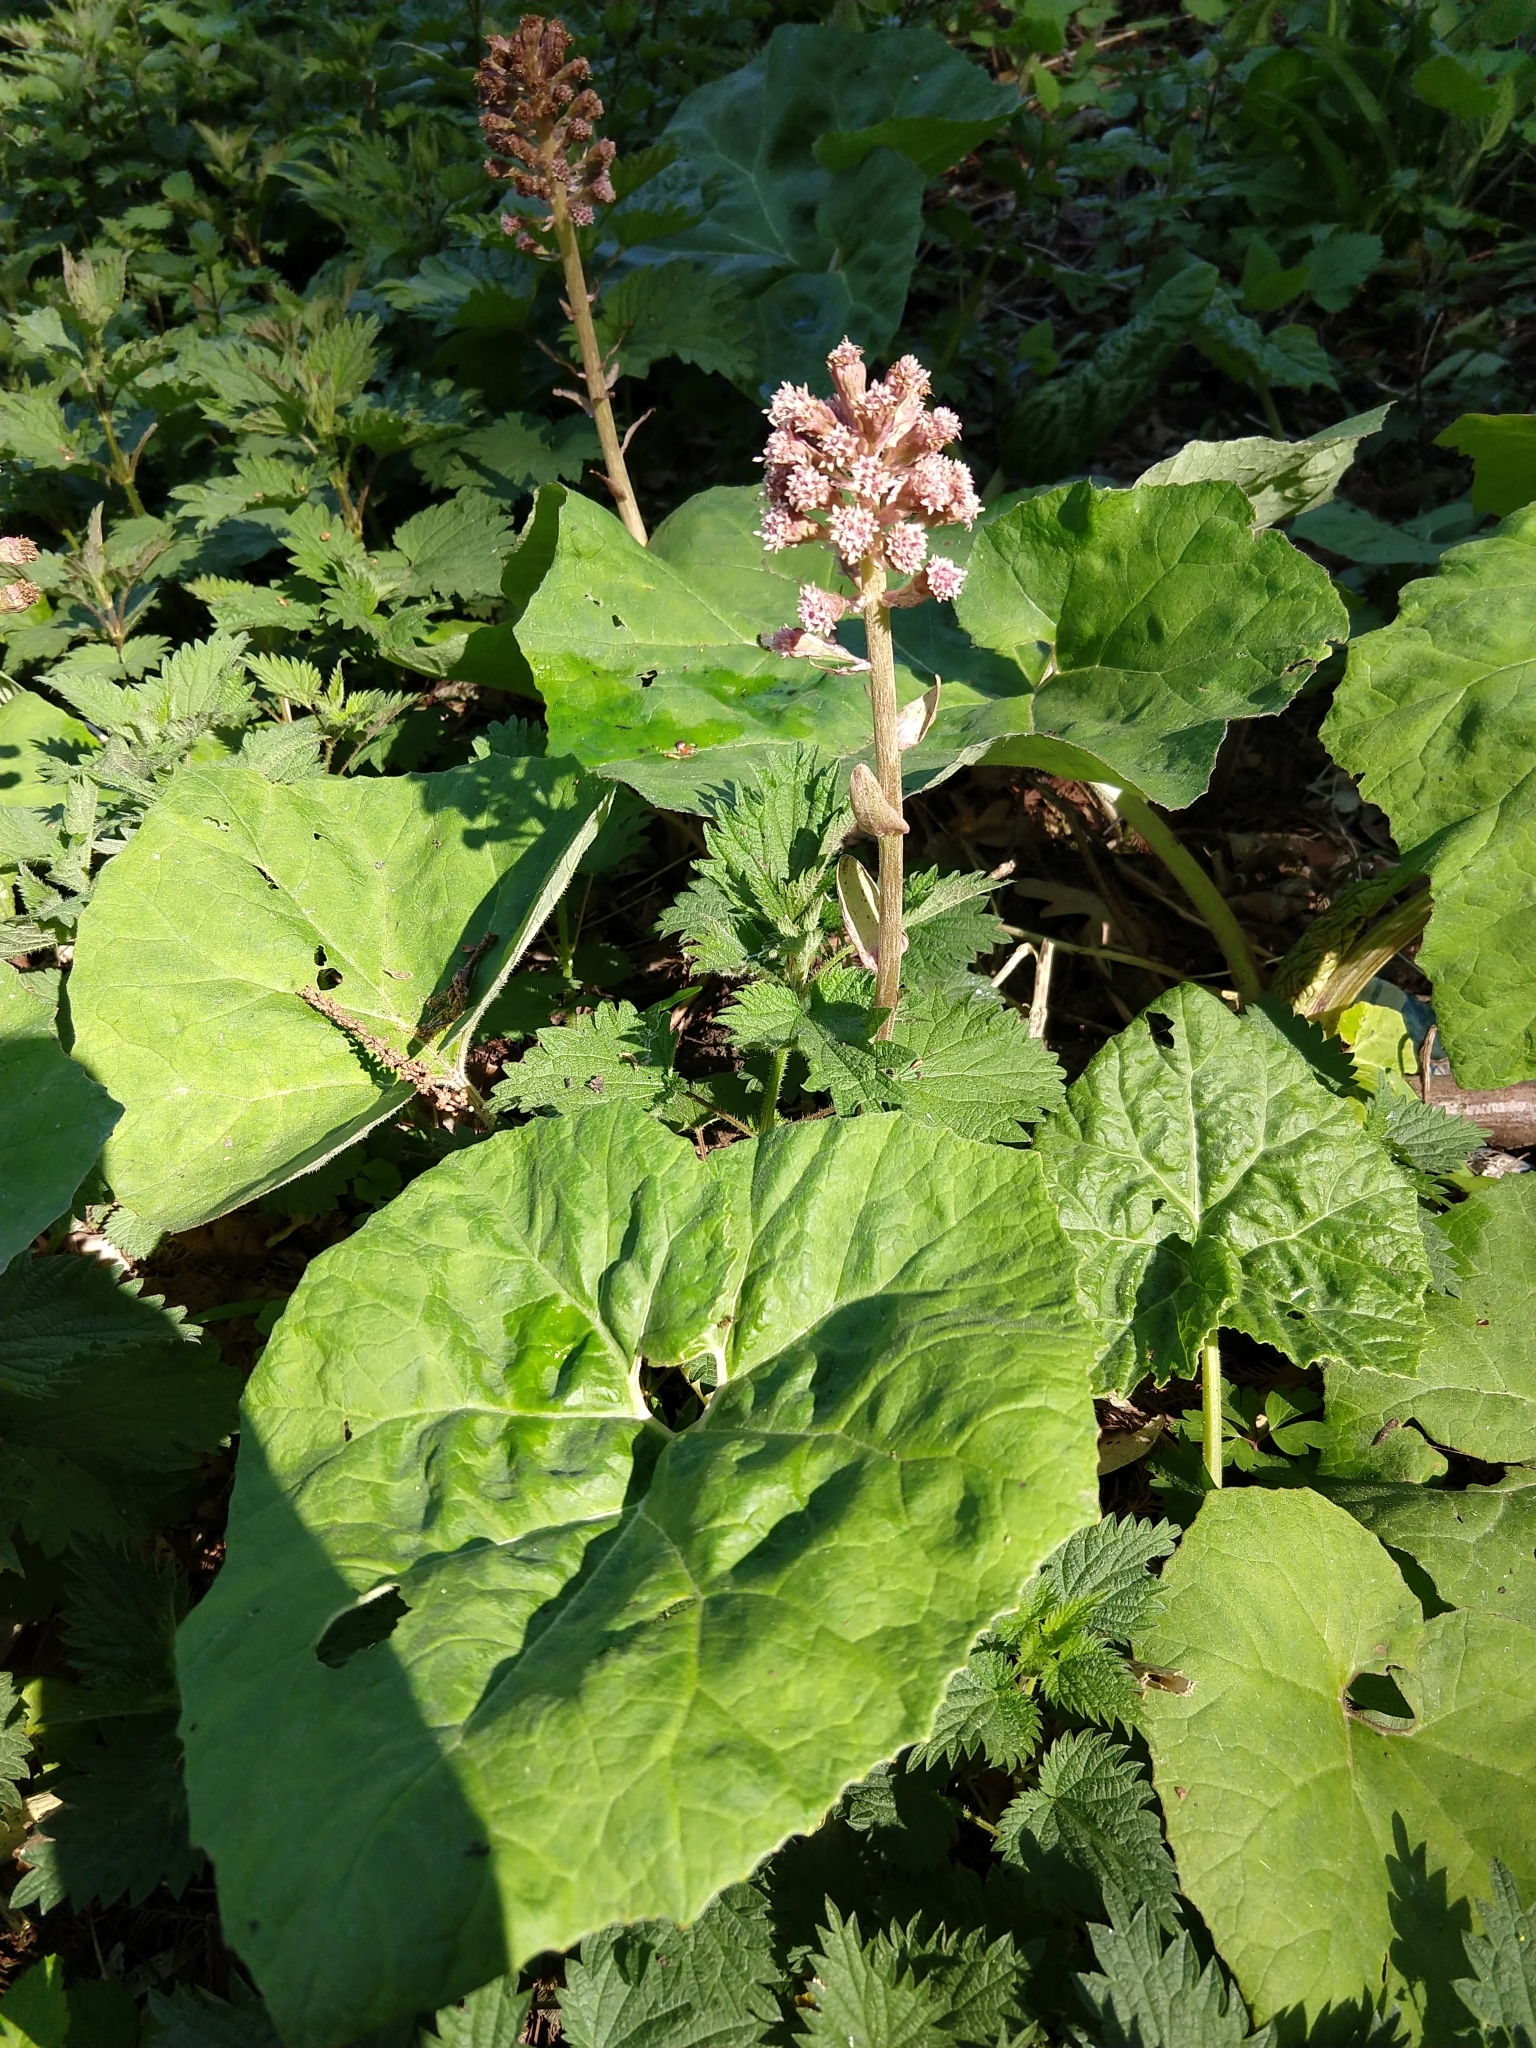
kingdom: Plantae
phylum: Tracheophyta
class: Magnoliopsida
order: Asterales
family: Asteraceae
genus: Petasites
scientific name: Petasites hybridus
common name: Butterbur
